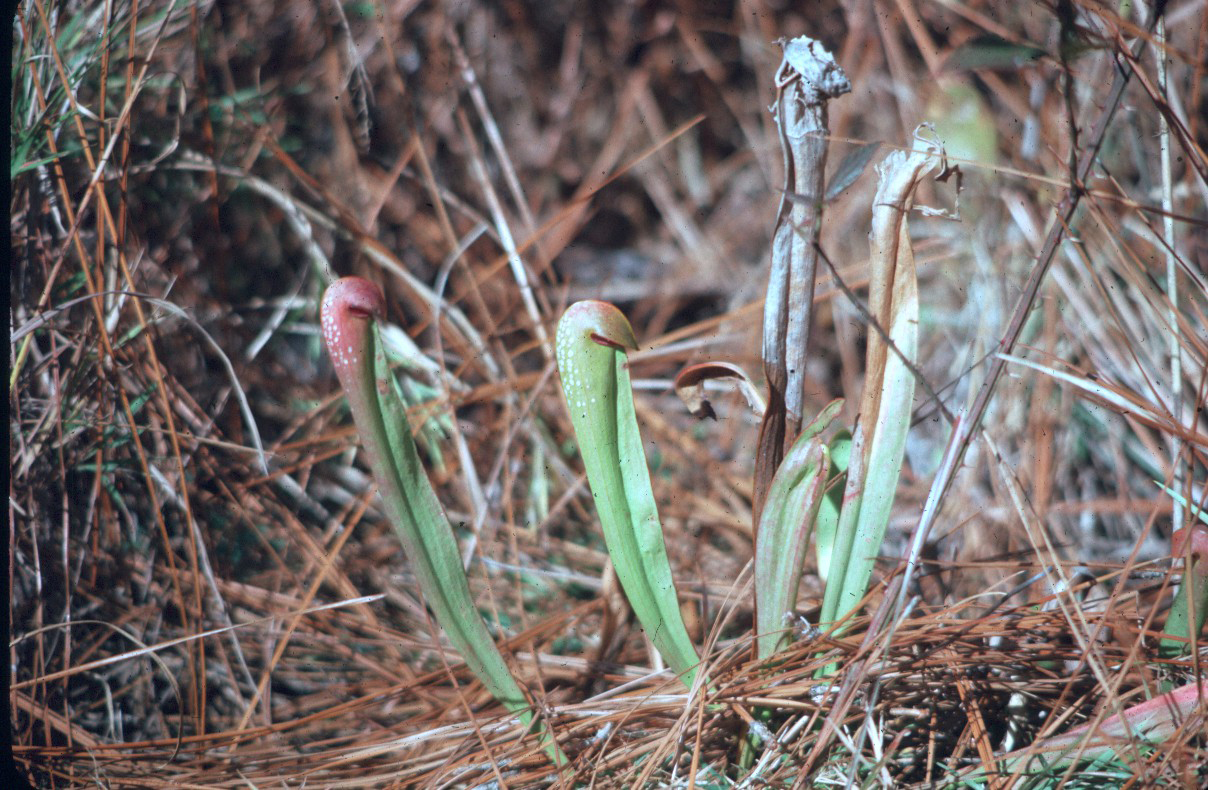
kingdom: Plantae
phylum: Tracheophyta
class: Magnoliopsida
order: Ericales
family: Sarraceniaceae
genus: Sarracenia
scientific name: Sarracenia minor
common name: Rainhat-trumpet
